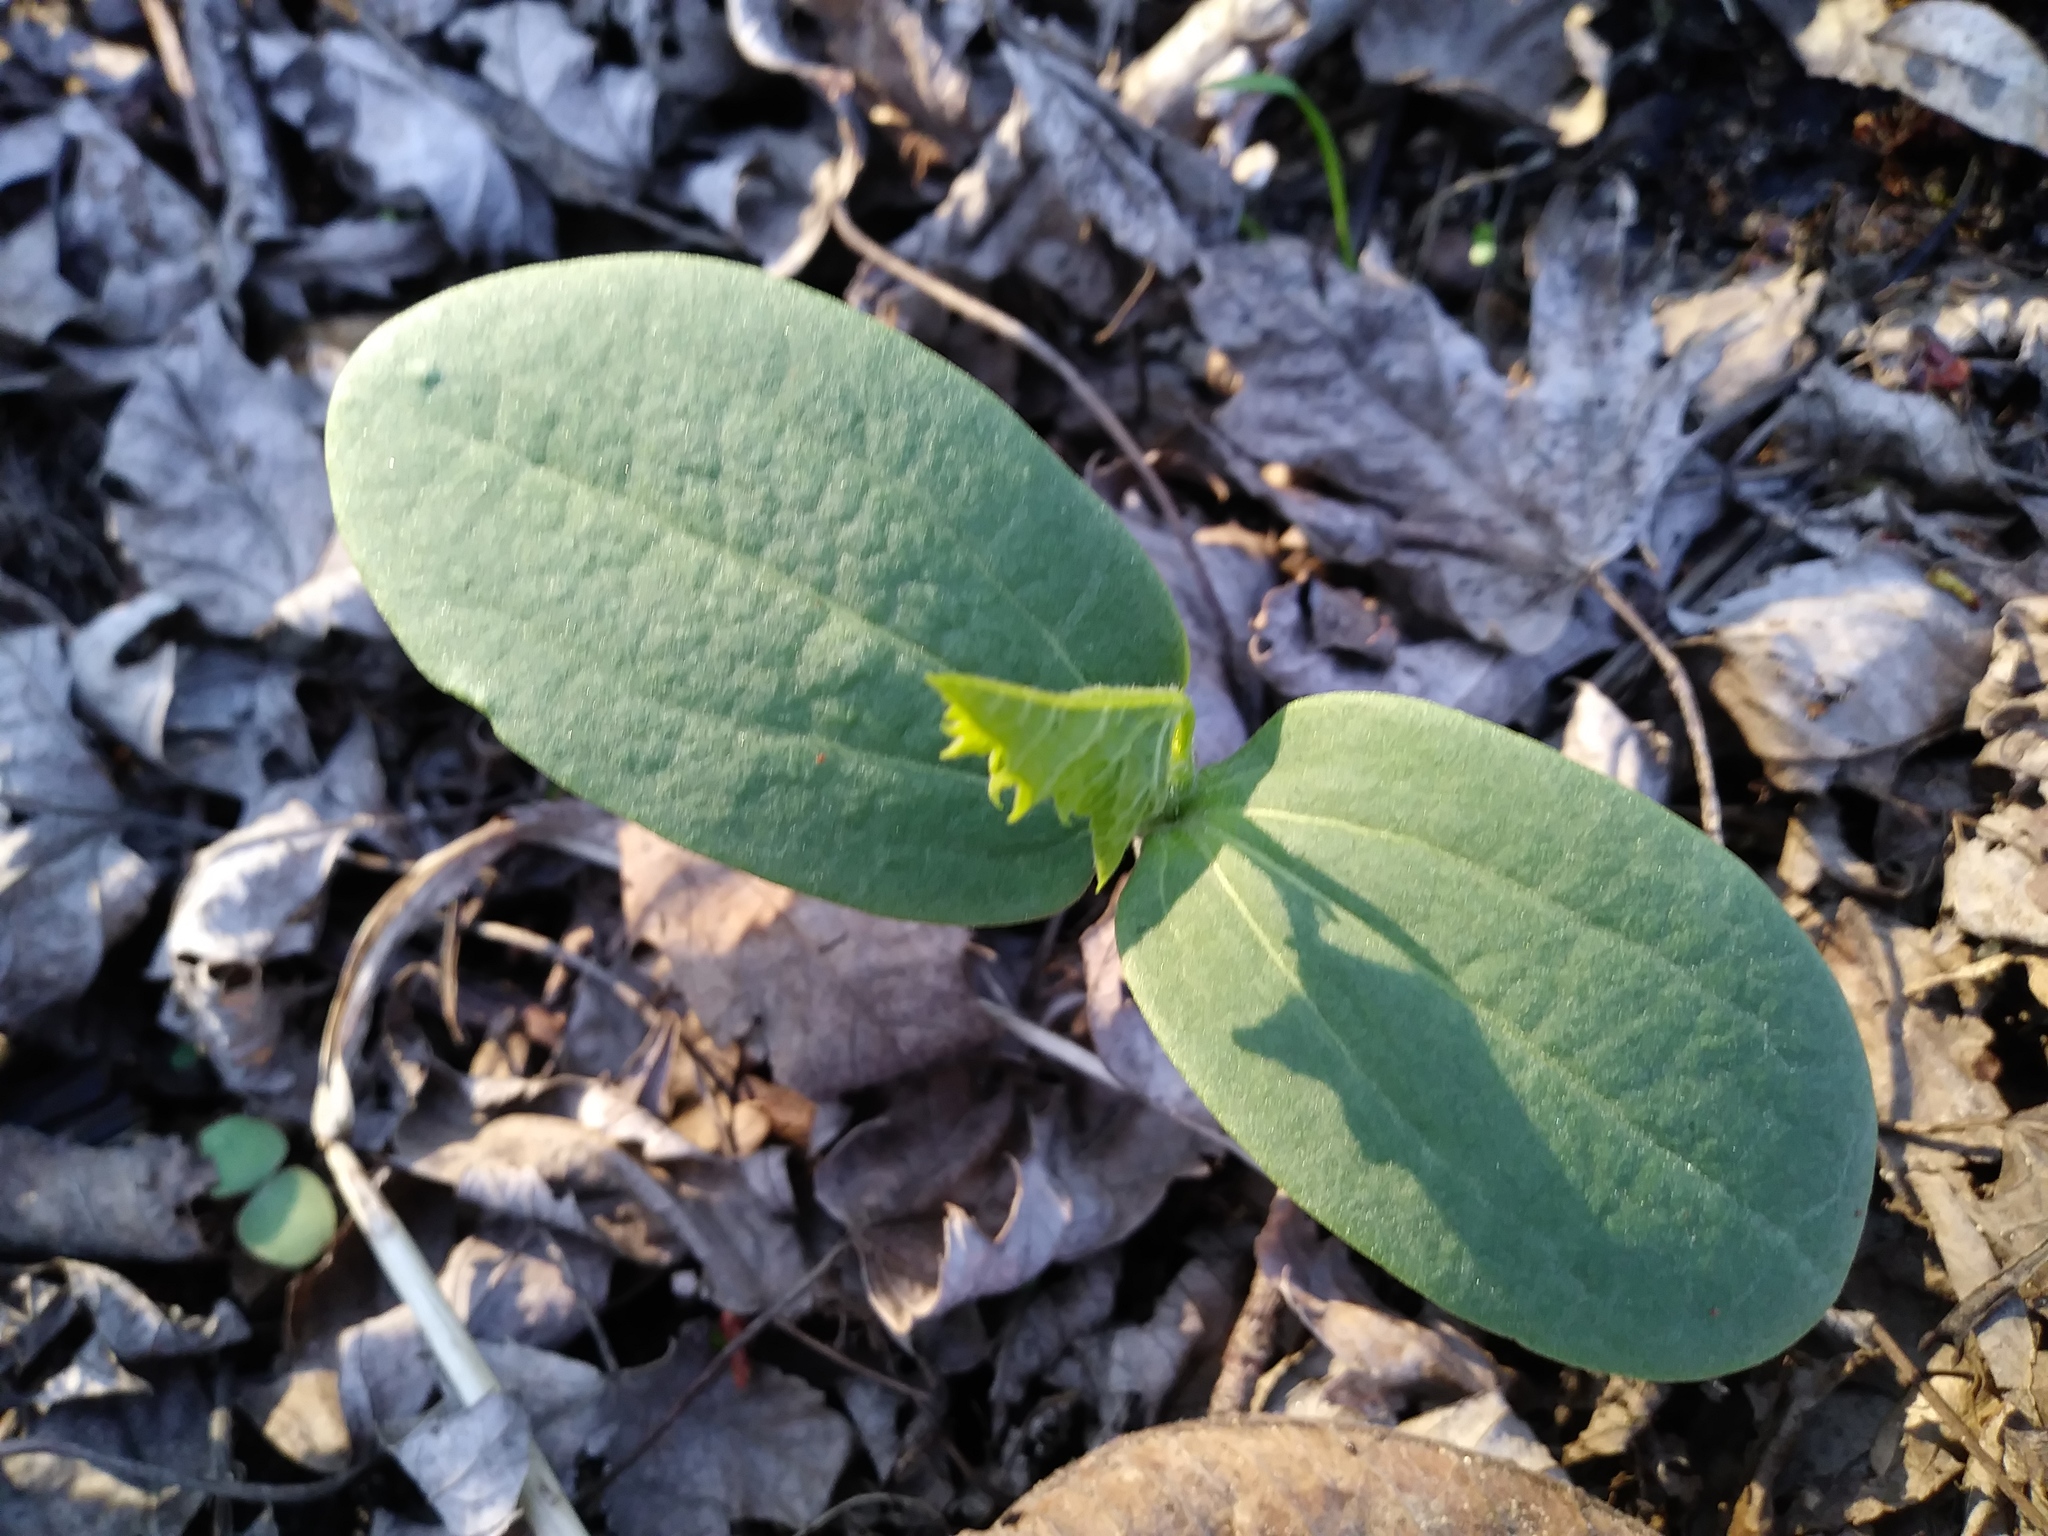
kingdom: Plantae
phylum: Tracheophyta
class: Magnoliopsida
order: Cucurbitales
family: Cucurbitaceae
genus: Echinocystis
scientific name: Echinocystis lobata
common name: Wild cucumber
